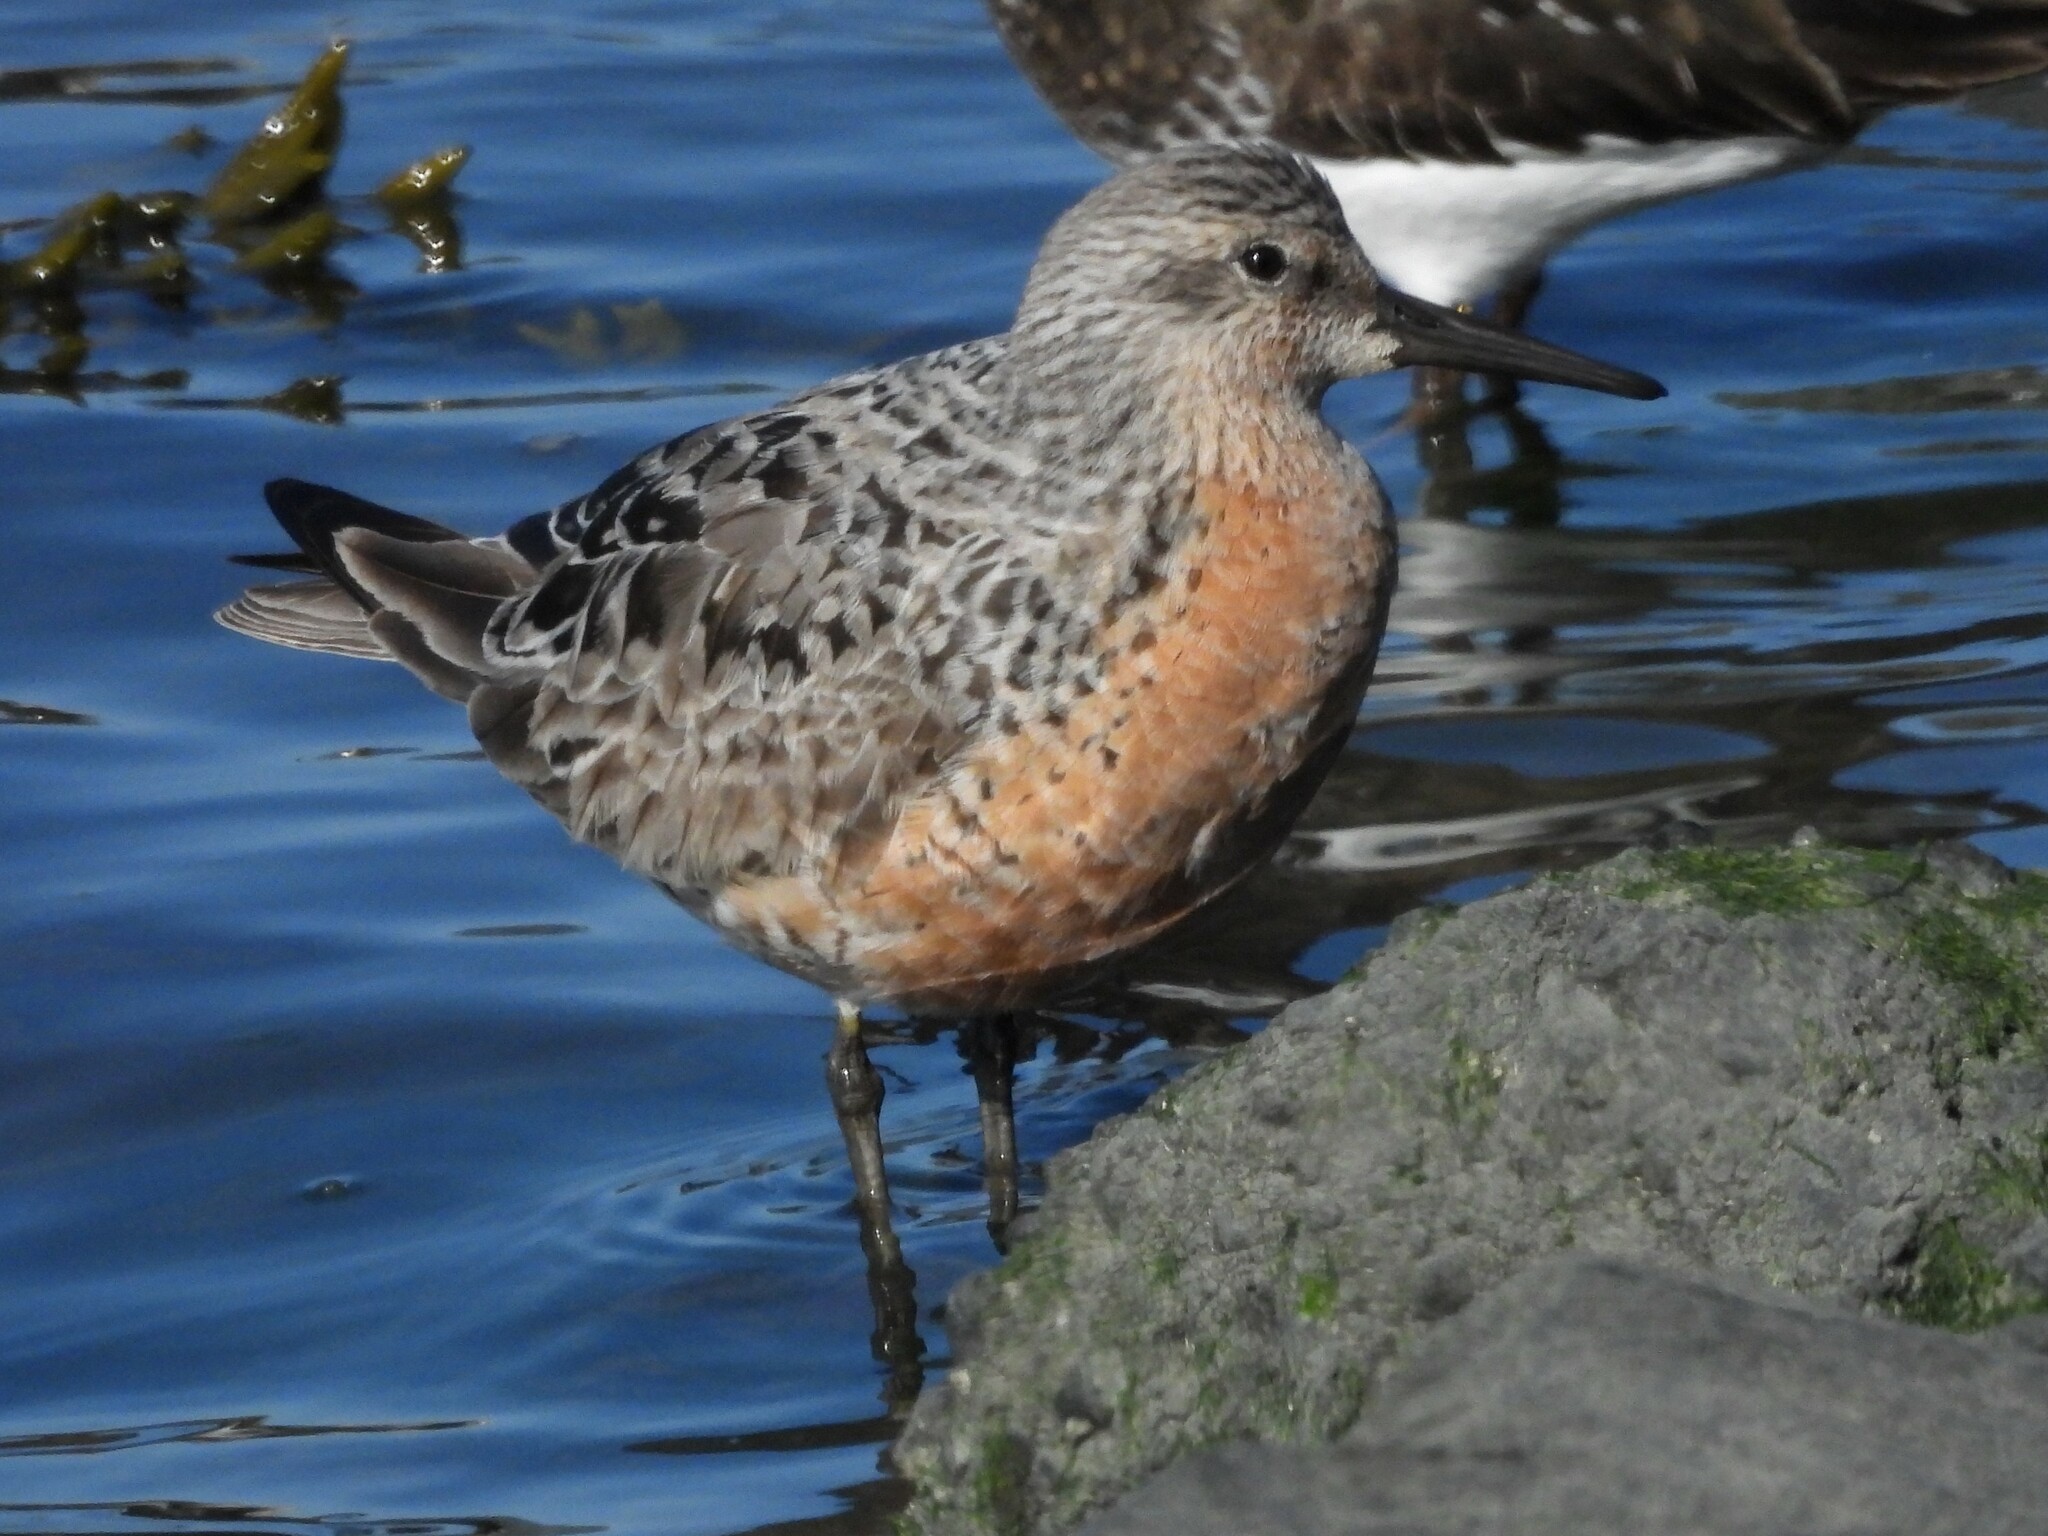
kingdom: Animalia
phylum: Chordata
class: Aves
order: Charadriiformes
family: Scolopacidae
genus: Calidris
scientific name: Calidris canutus
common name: Red knot
